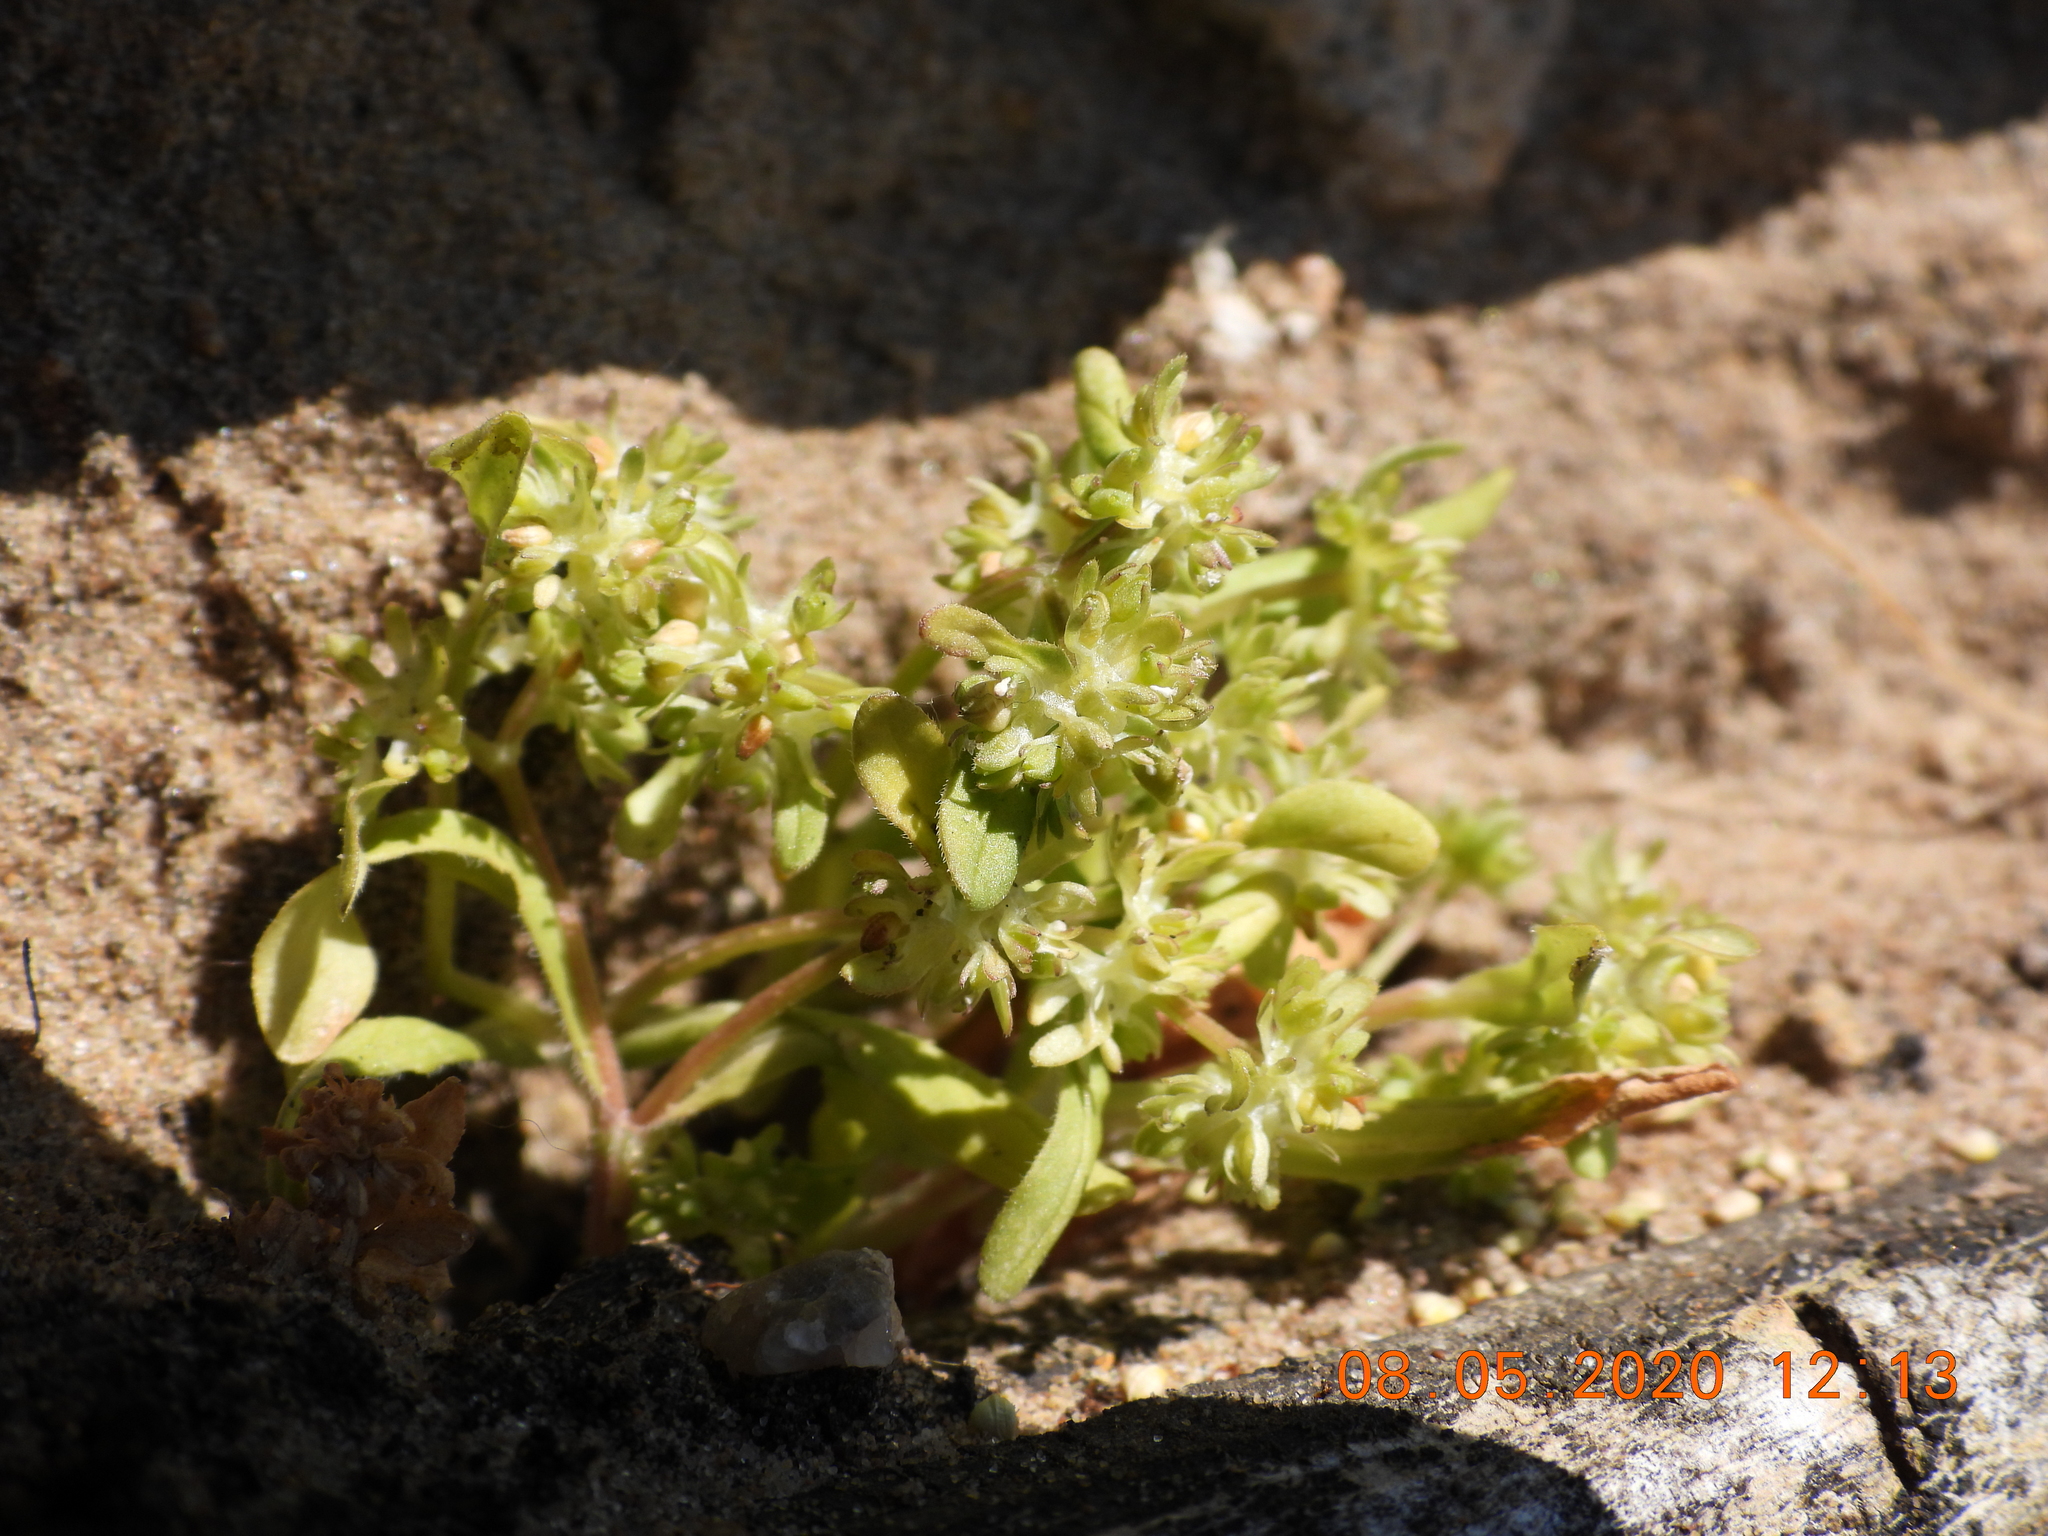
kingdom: Plantae
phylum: Tracheophyta
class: Magnoliopsida
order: Dipsacales
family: Caprifoliaceae
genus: Valerianella
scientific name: Valerianella locusta
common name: Common cornsalad
